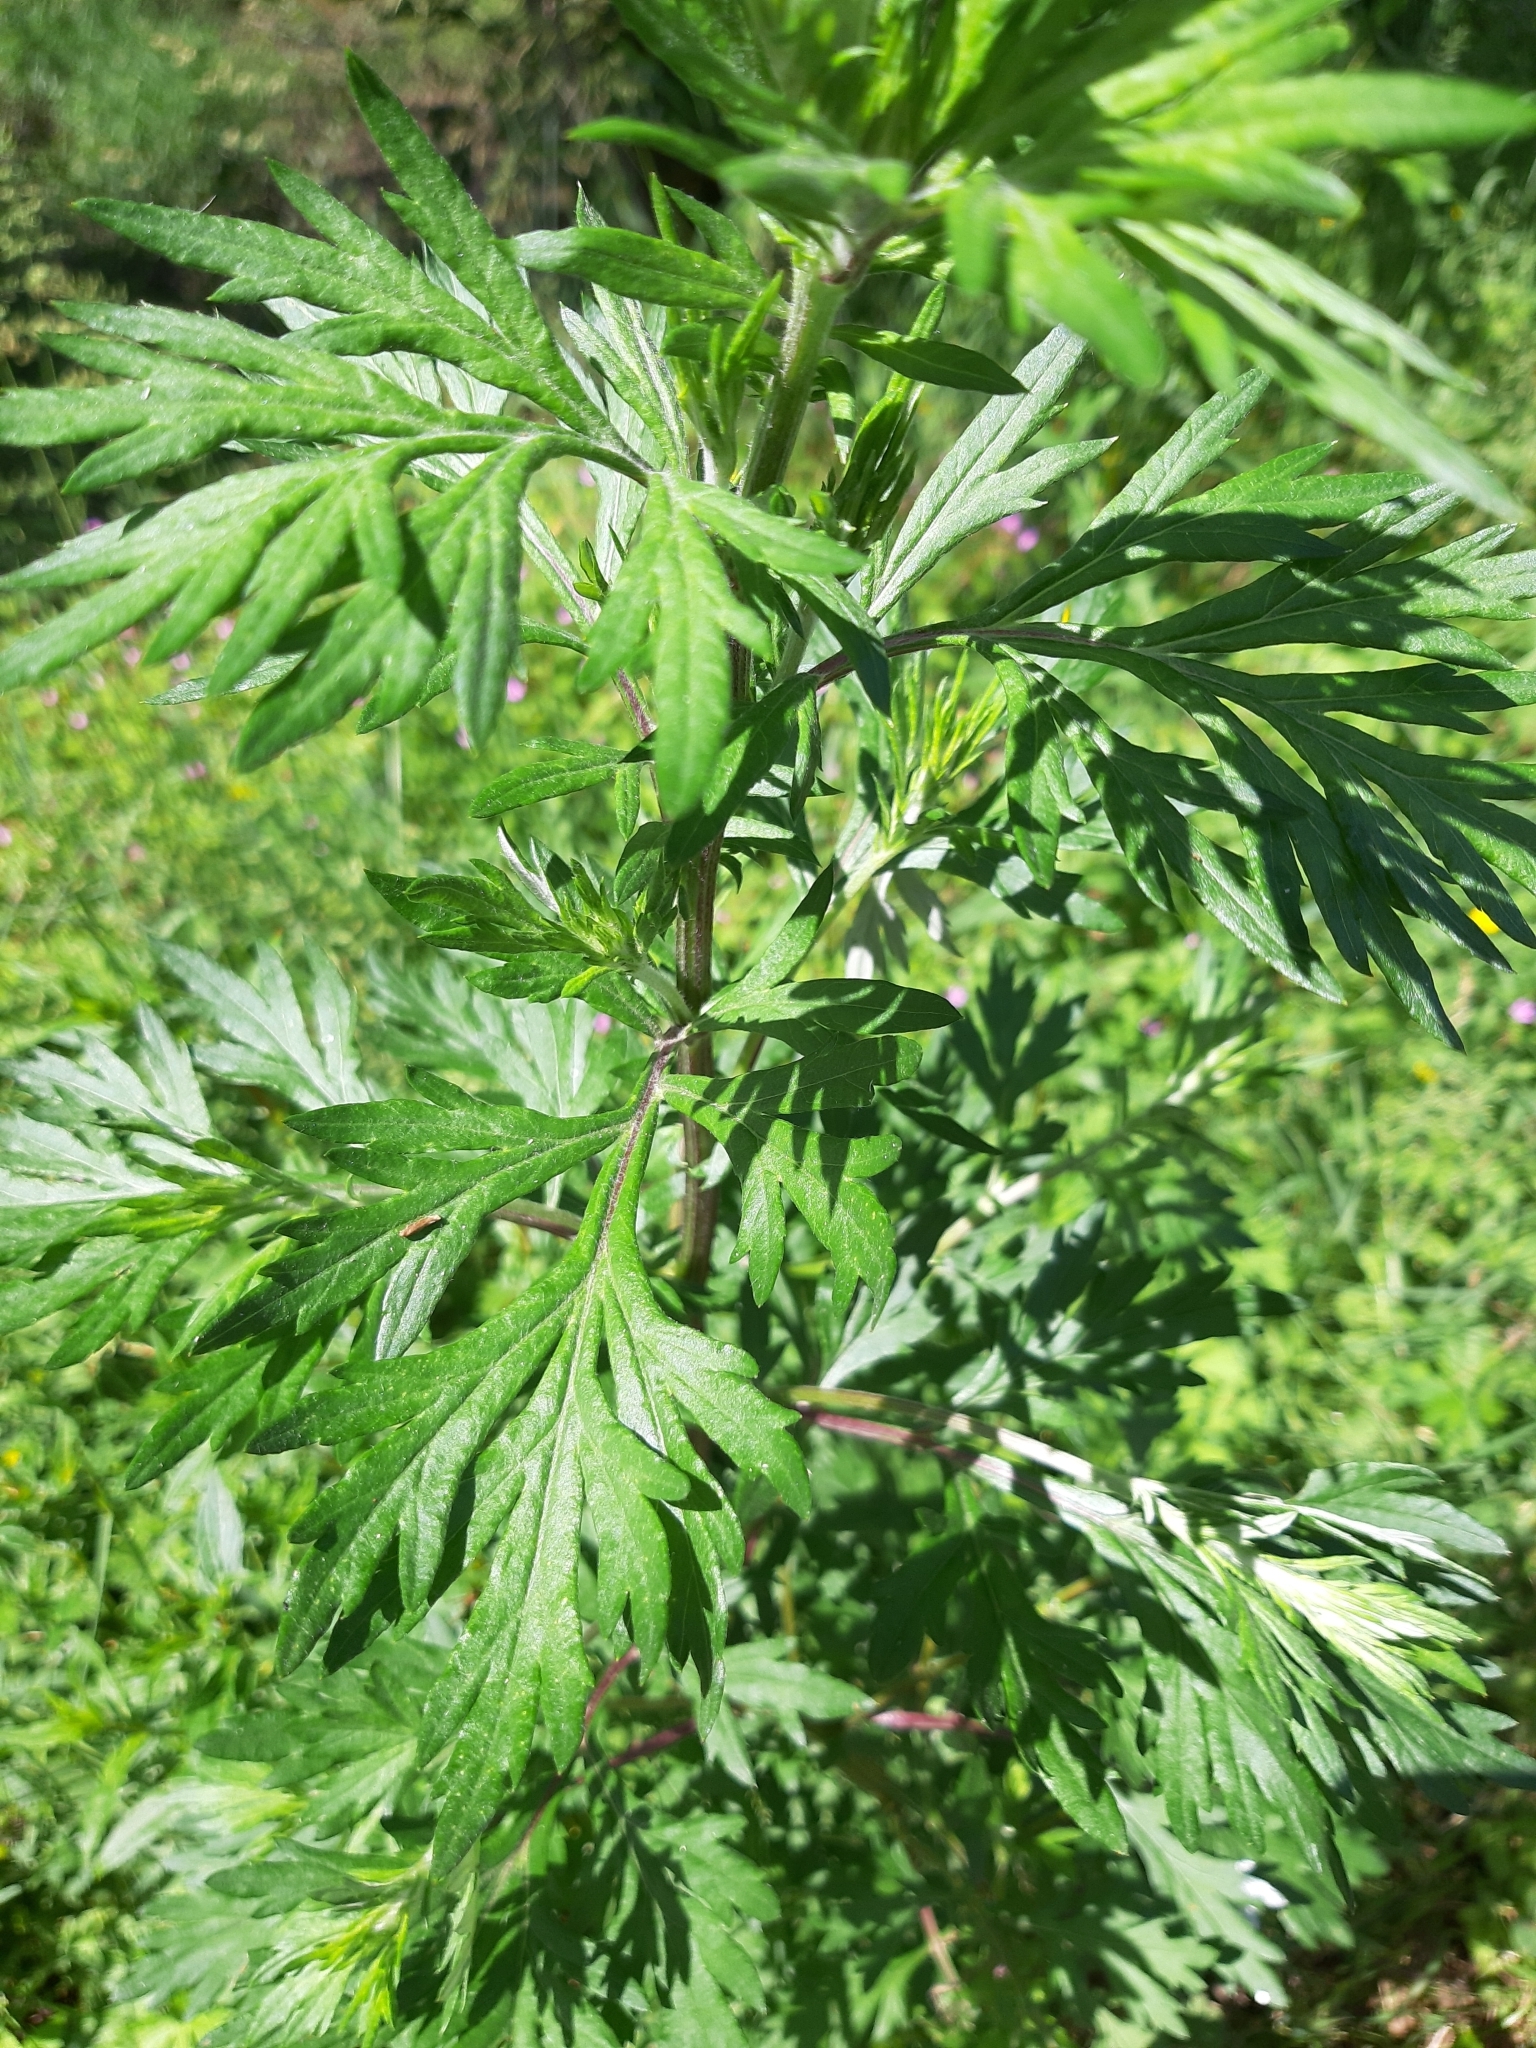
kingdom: Plantae
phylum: Tracheophyta
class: Magnoliopsida
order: Asterales
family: Asteraceae
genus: Artemisia
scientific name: Artemisia vulgaris
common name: Mugwort
